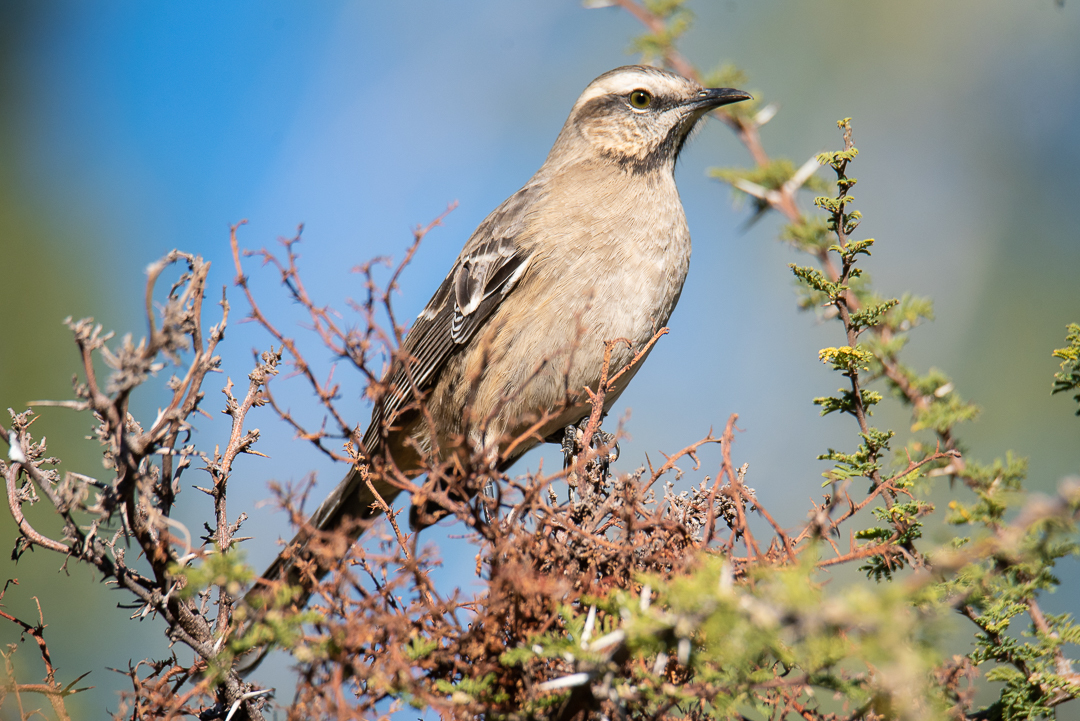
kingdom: Animalia
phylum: Chordata
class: Aves
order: Passeriformes
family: Mimidae
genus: Mimus
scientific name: Mimus thenca
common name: Chilean mockingbird
